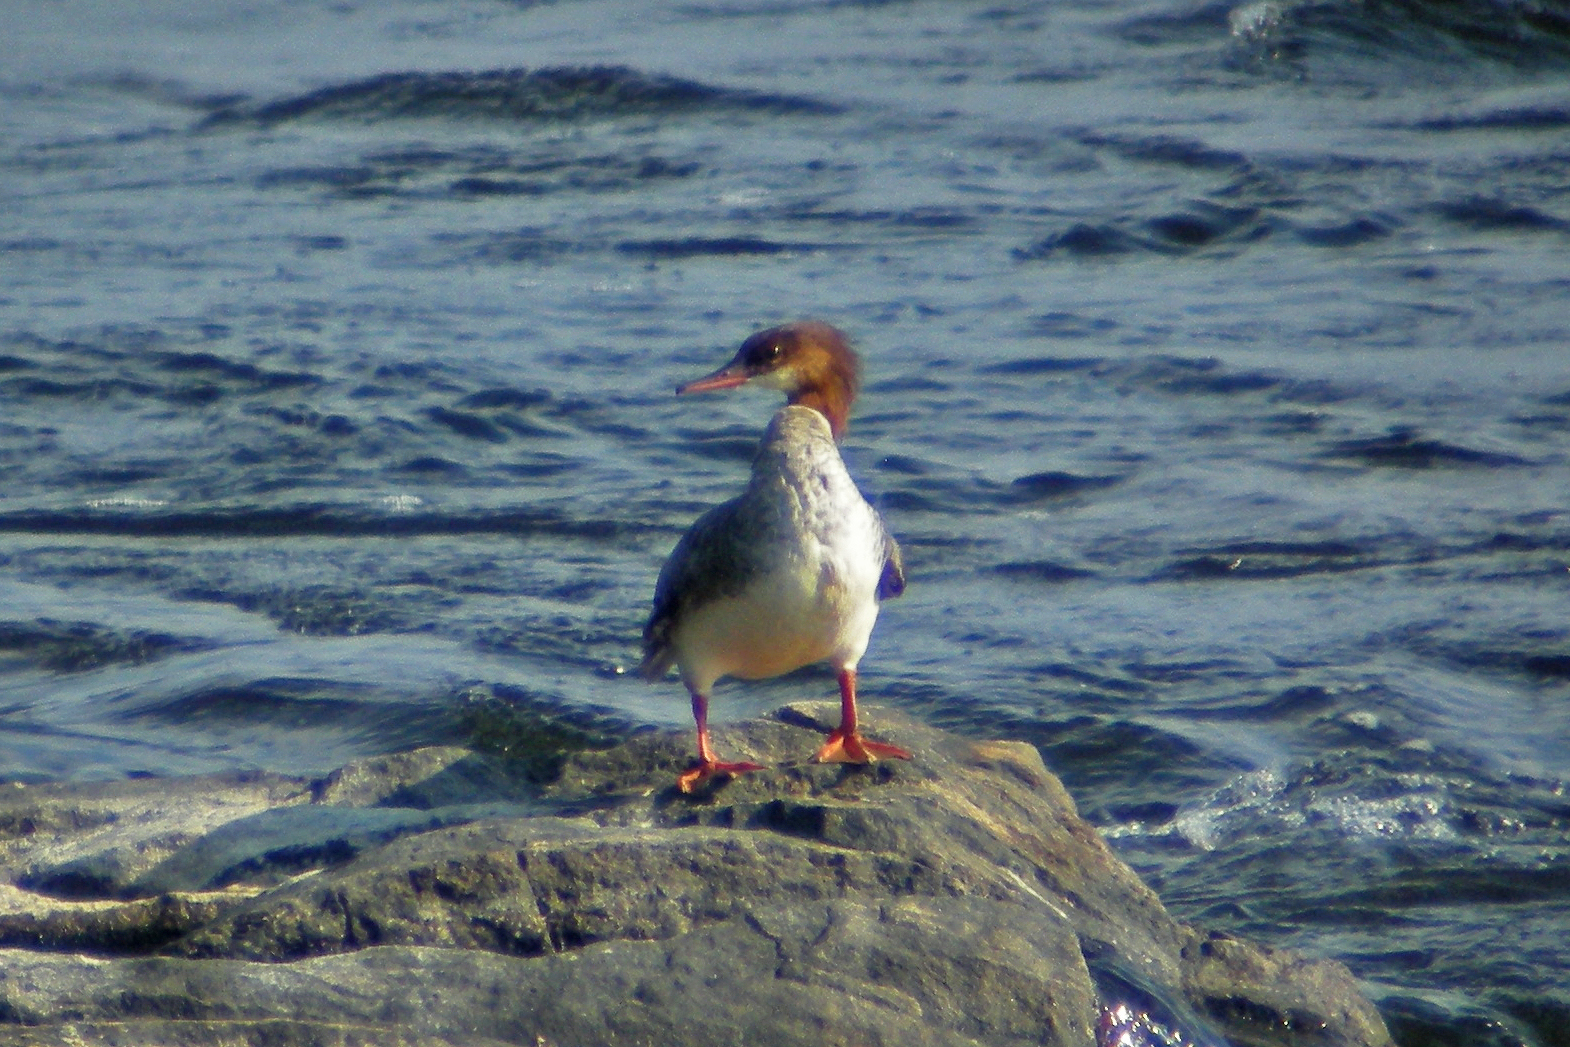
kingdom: Animalia
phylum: Chordata
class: Aves
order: Anseriformes
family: Anatidae
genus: Mergus
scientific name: Mergus merganser
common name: Common merganser
